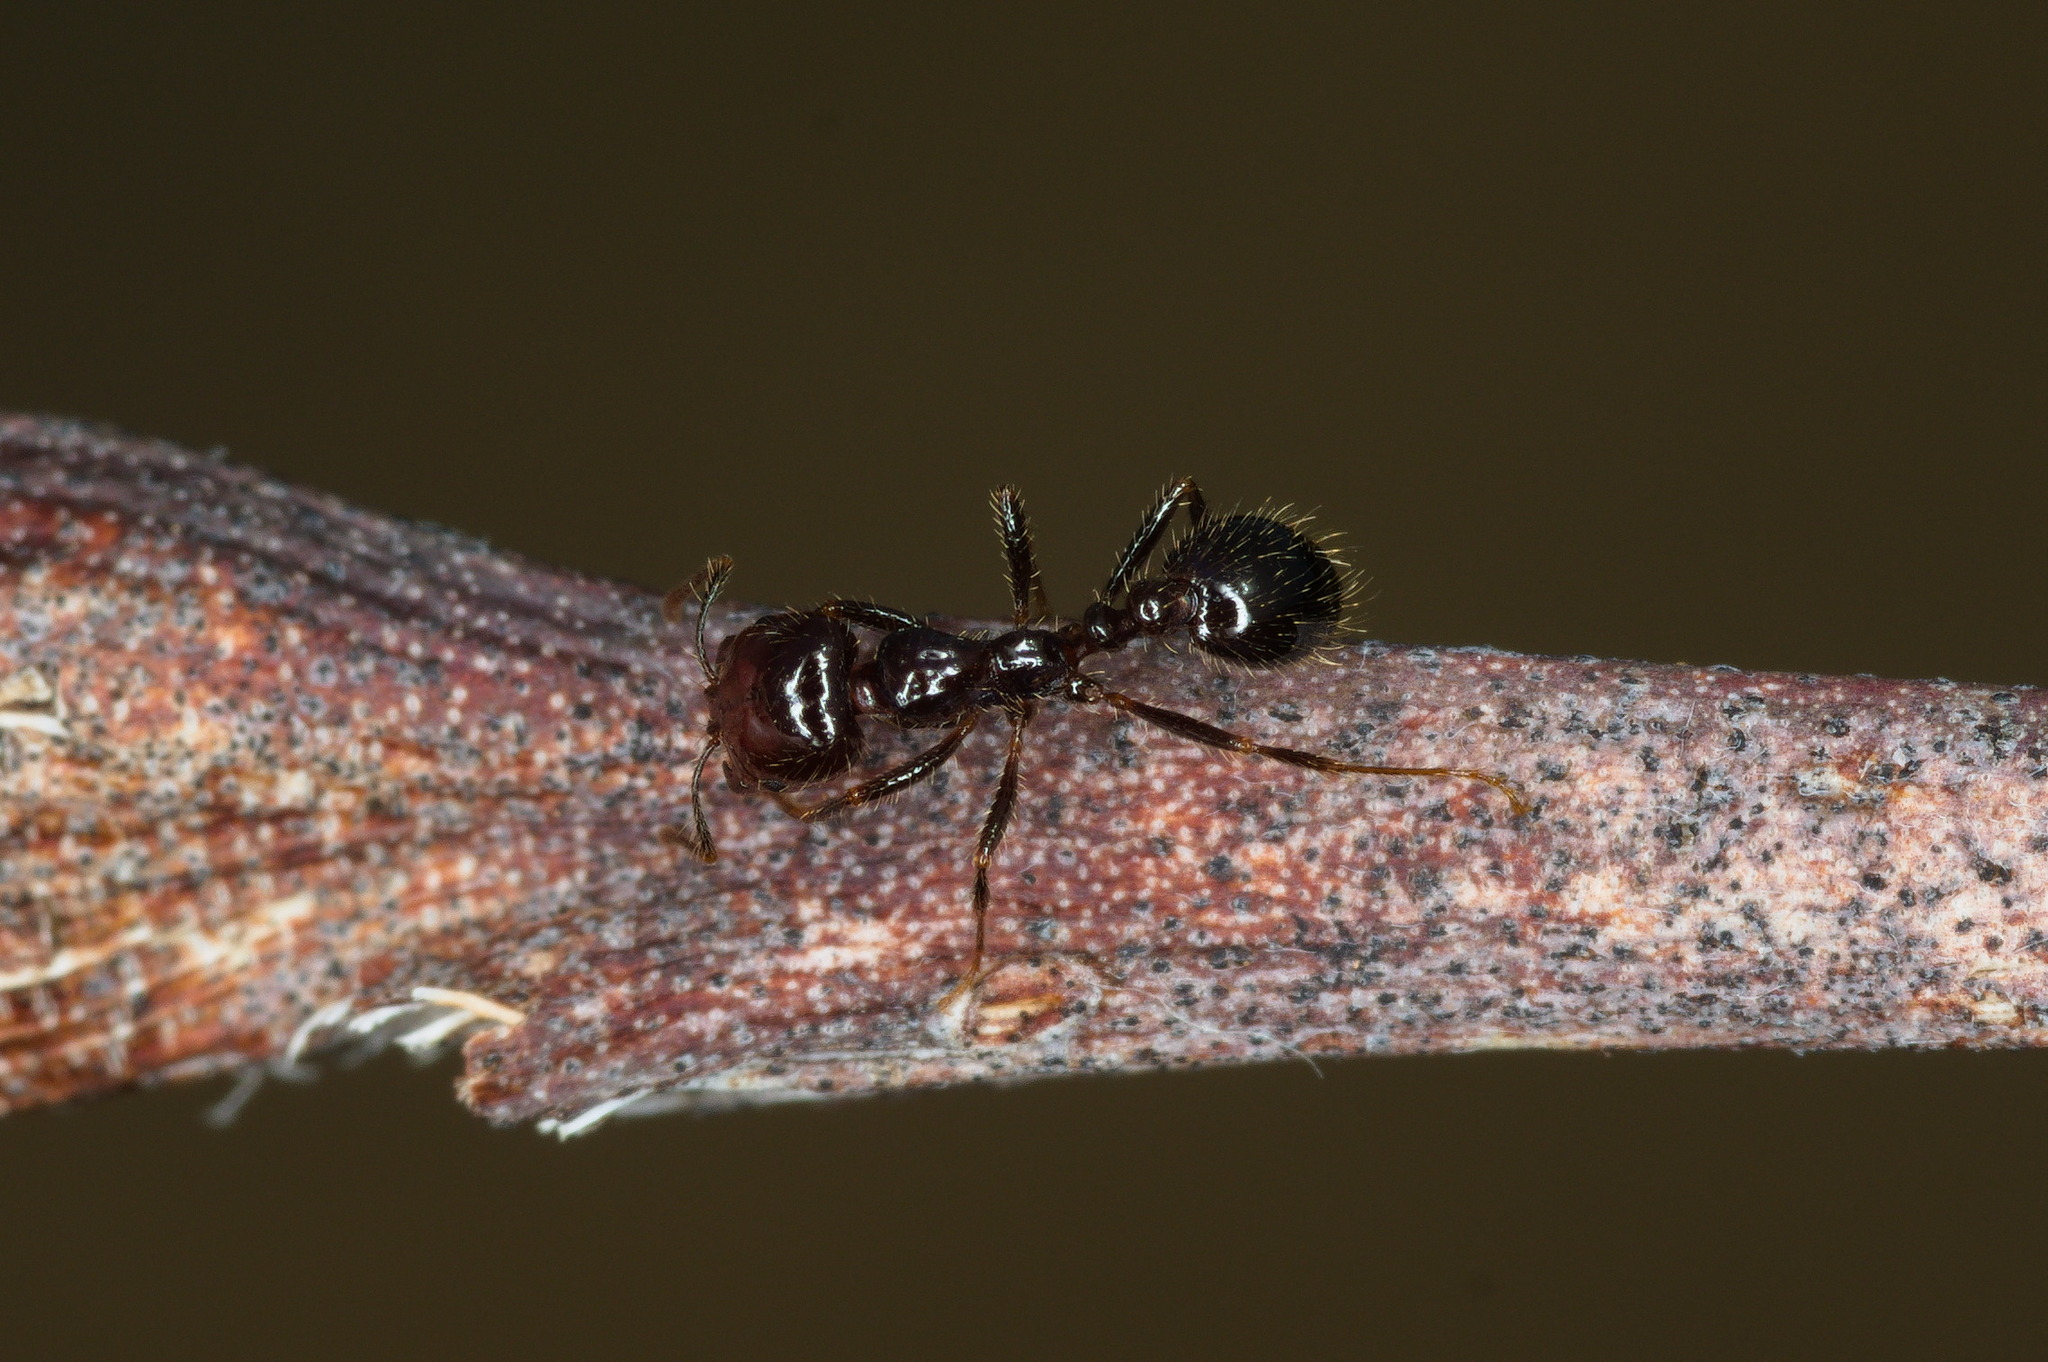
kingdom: Animalia
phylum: Arthropoda
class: Insecta
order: Hymenoptera
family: Formicidae
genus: Solenopsis
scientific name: Solenopsis xyloni
